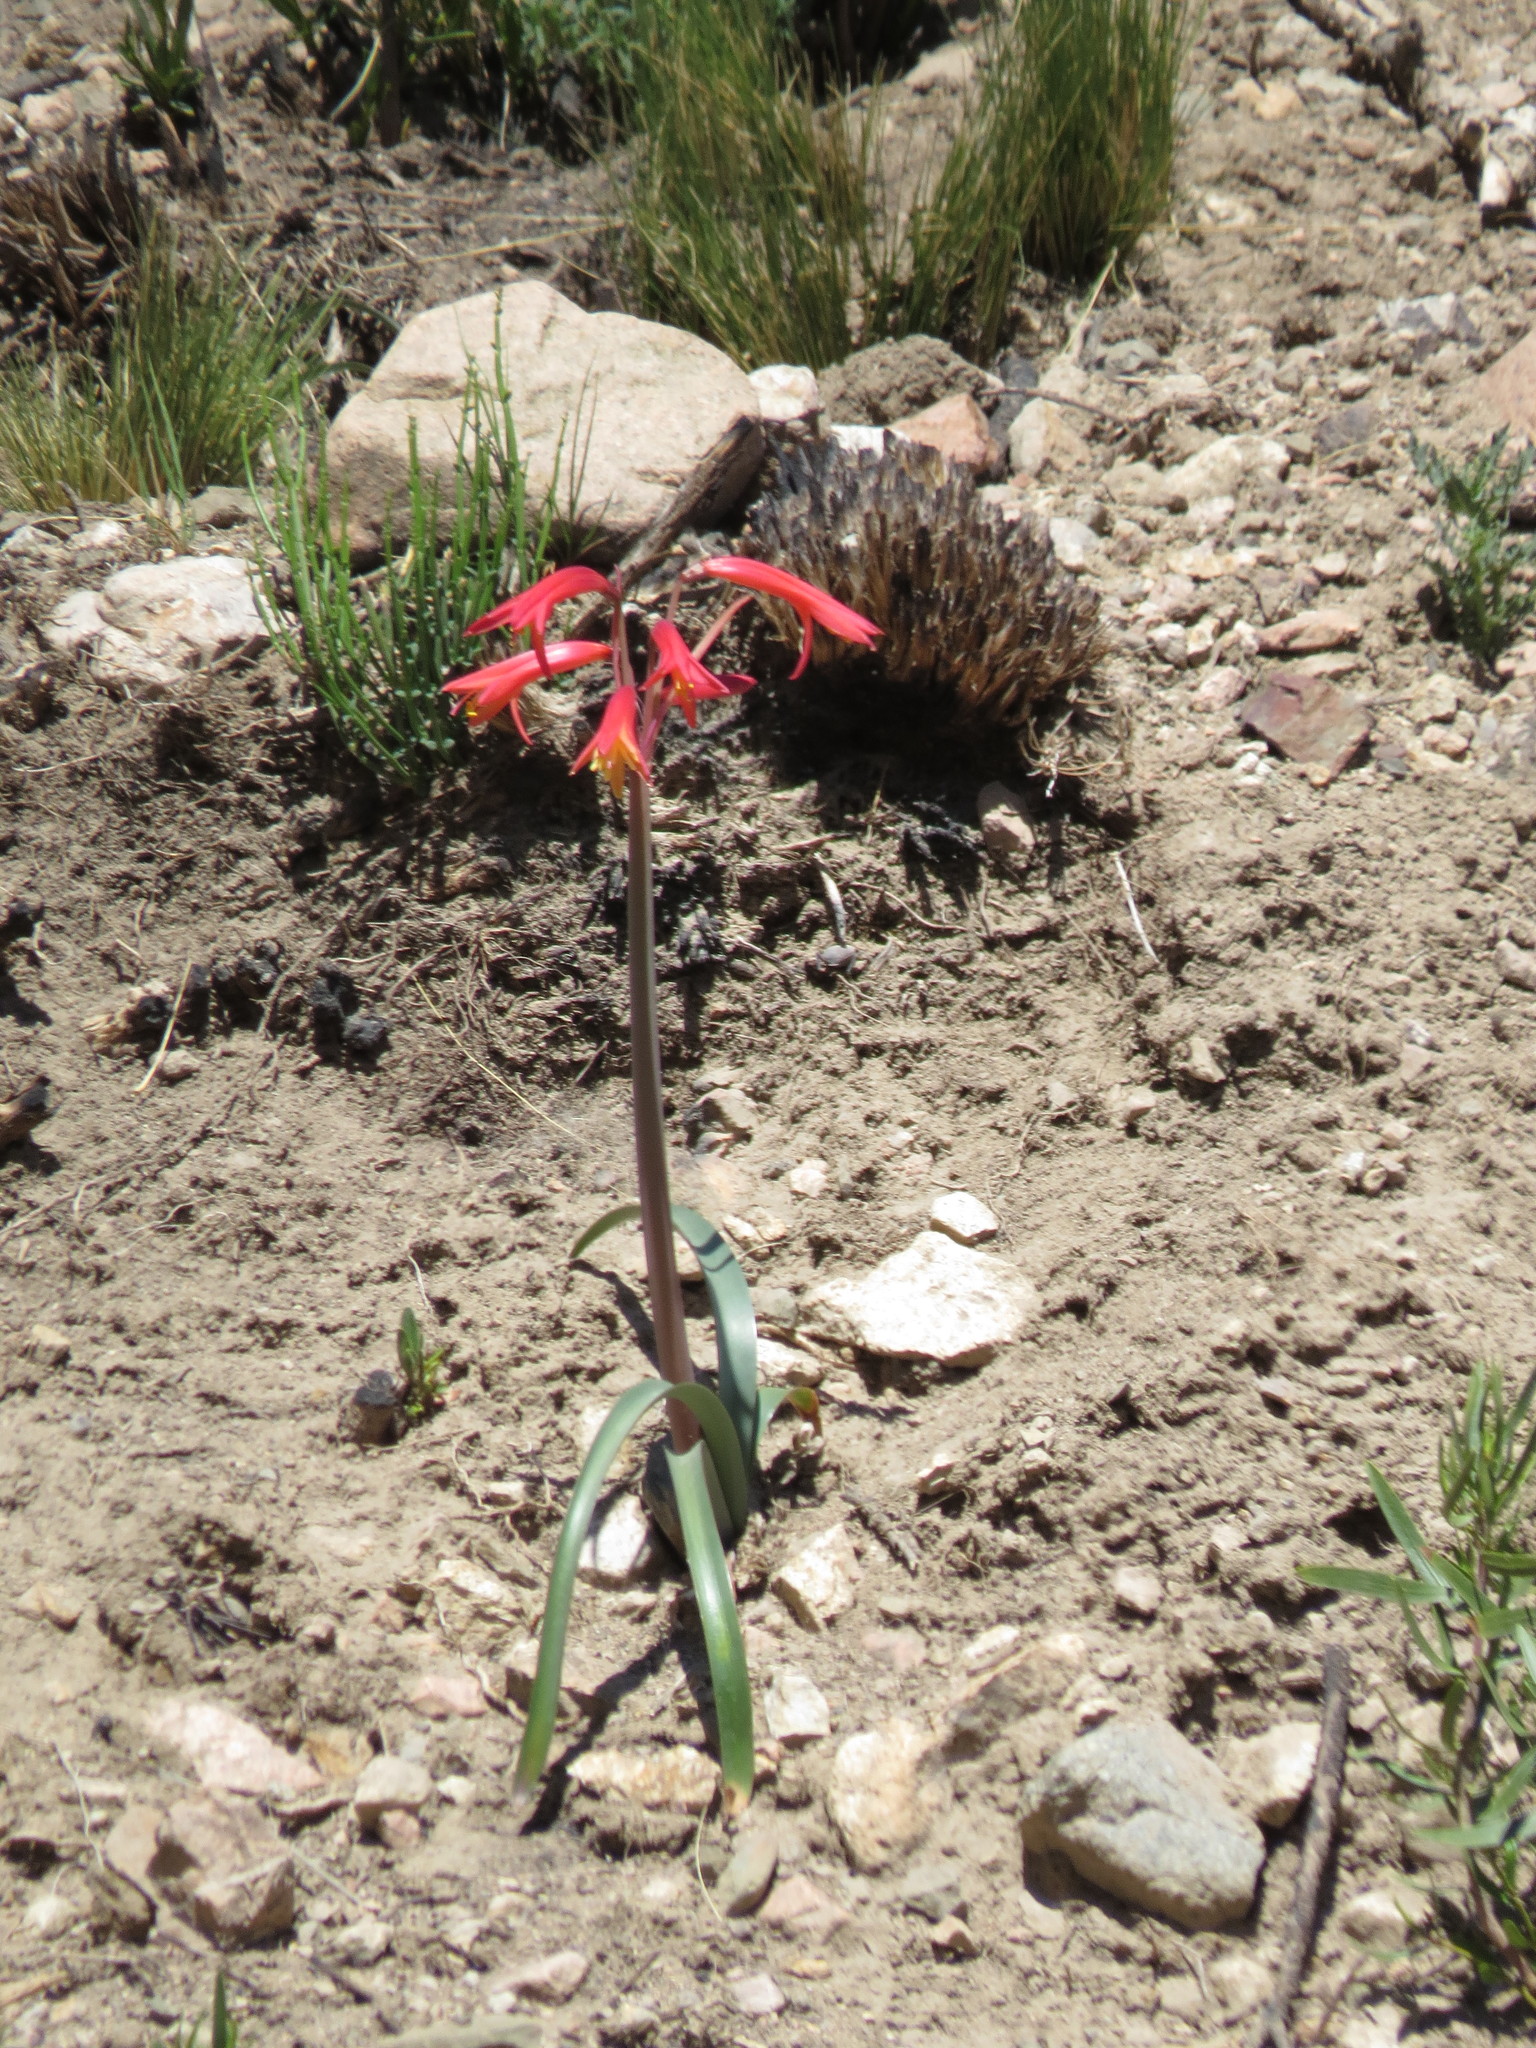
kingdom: Plantae
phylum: Tracheophyta
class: Liliopsida
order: Asparagales
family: Amaryllidaceae
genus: Zephyranthes
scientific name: Zephyranthes graciliflora
